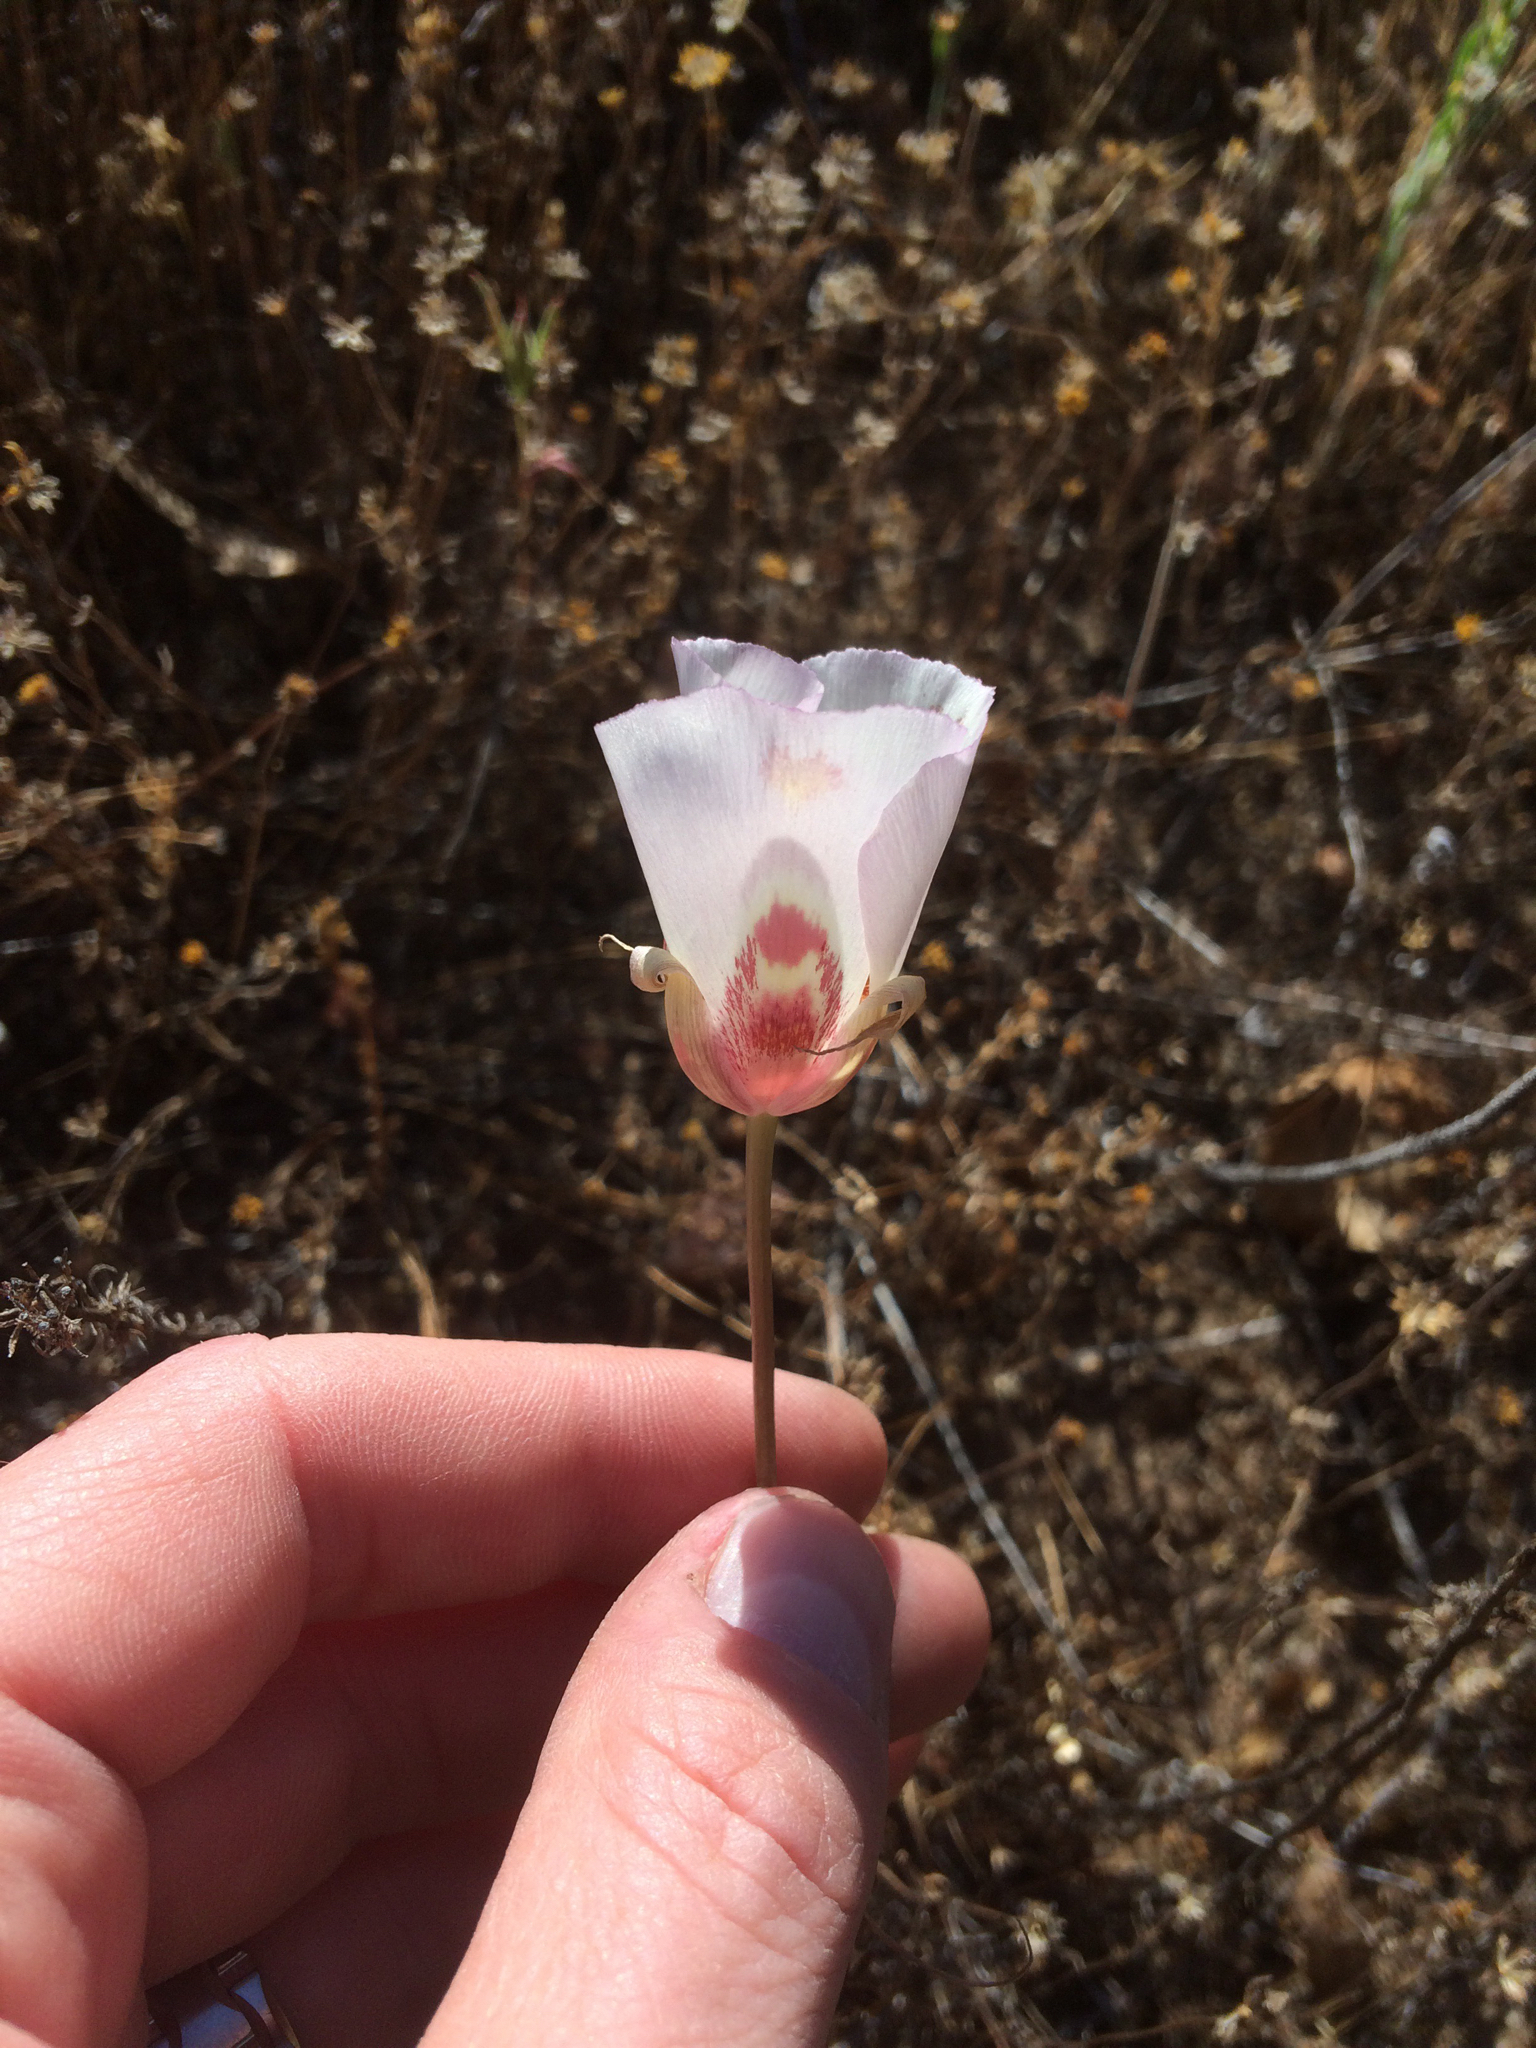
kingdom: Plantae
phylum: Tracheophyta
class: Liliopsida
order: Liliales
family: Liliaceae
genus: Calochortus
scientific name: Calochortus venustus
